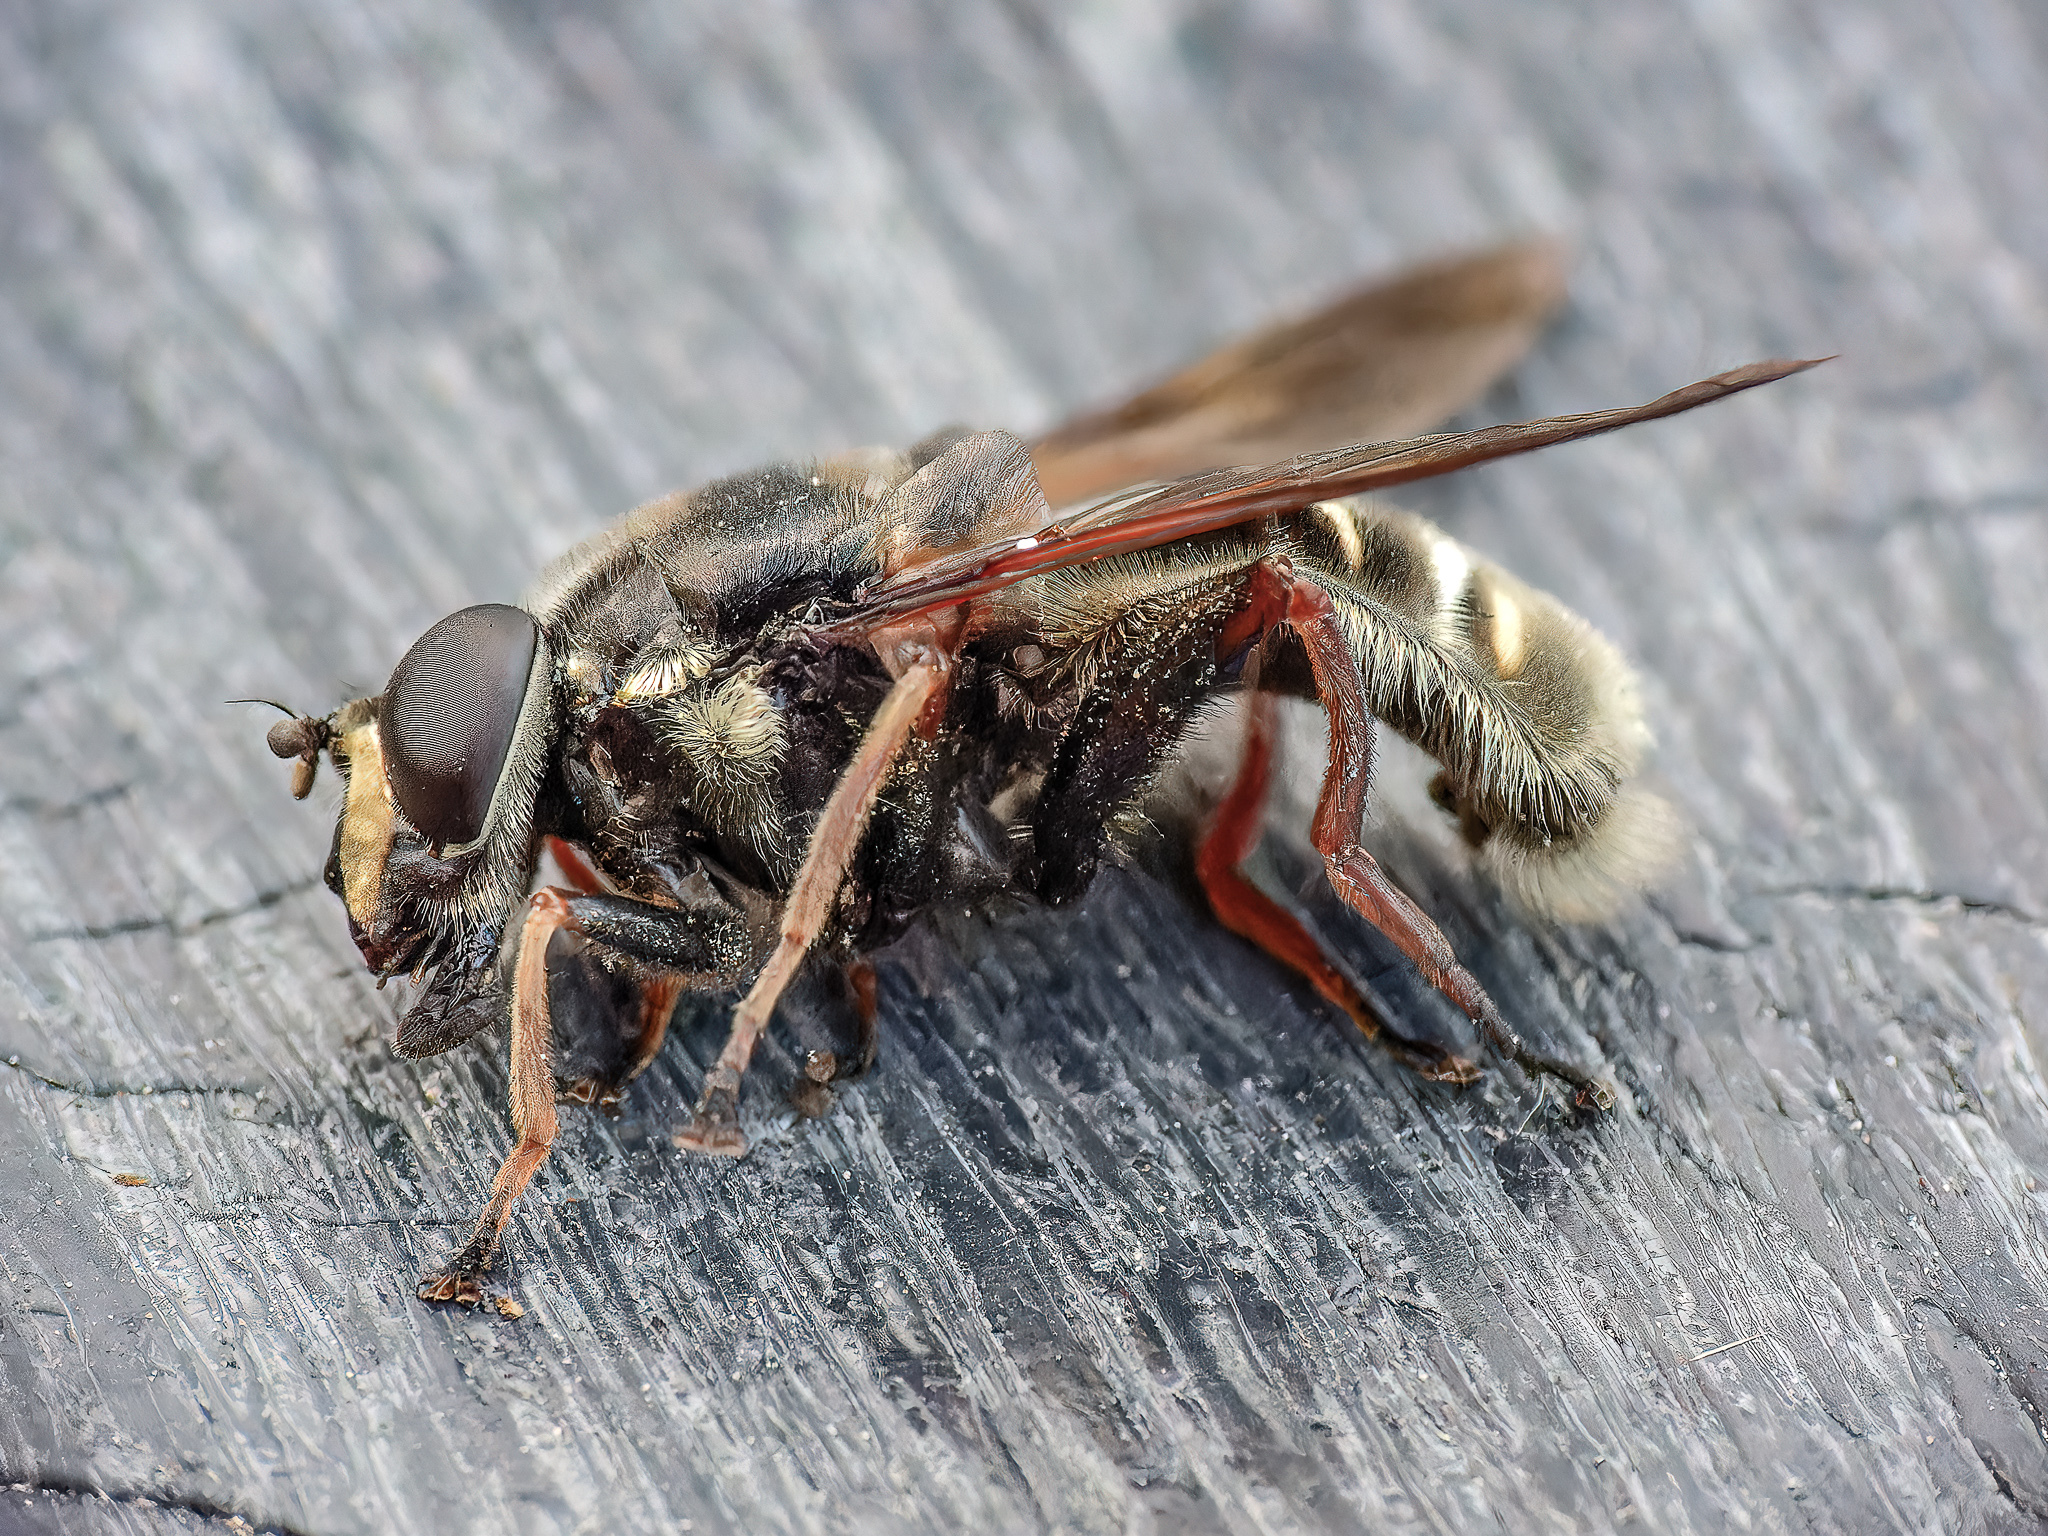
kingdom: Animalia
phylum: Arthropoda
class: Insecta
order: Diptera
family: Syrphidae
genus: Sericomyia
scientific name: Sericomyia militaris
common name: Narrow-banded pond fly
